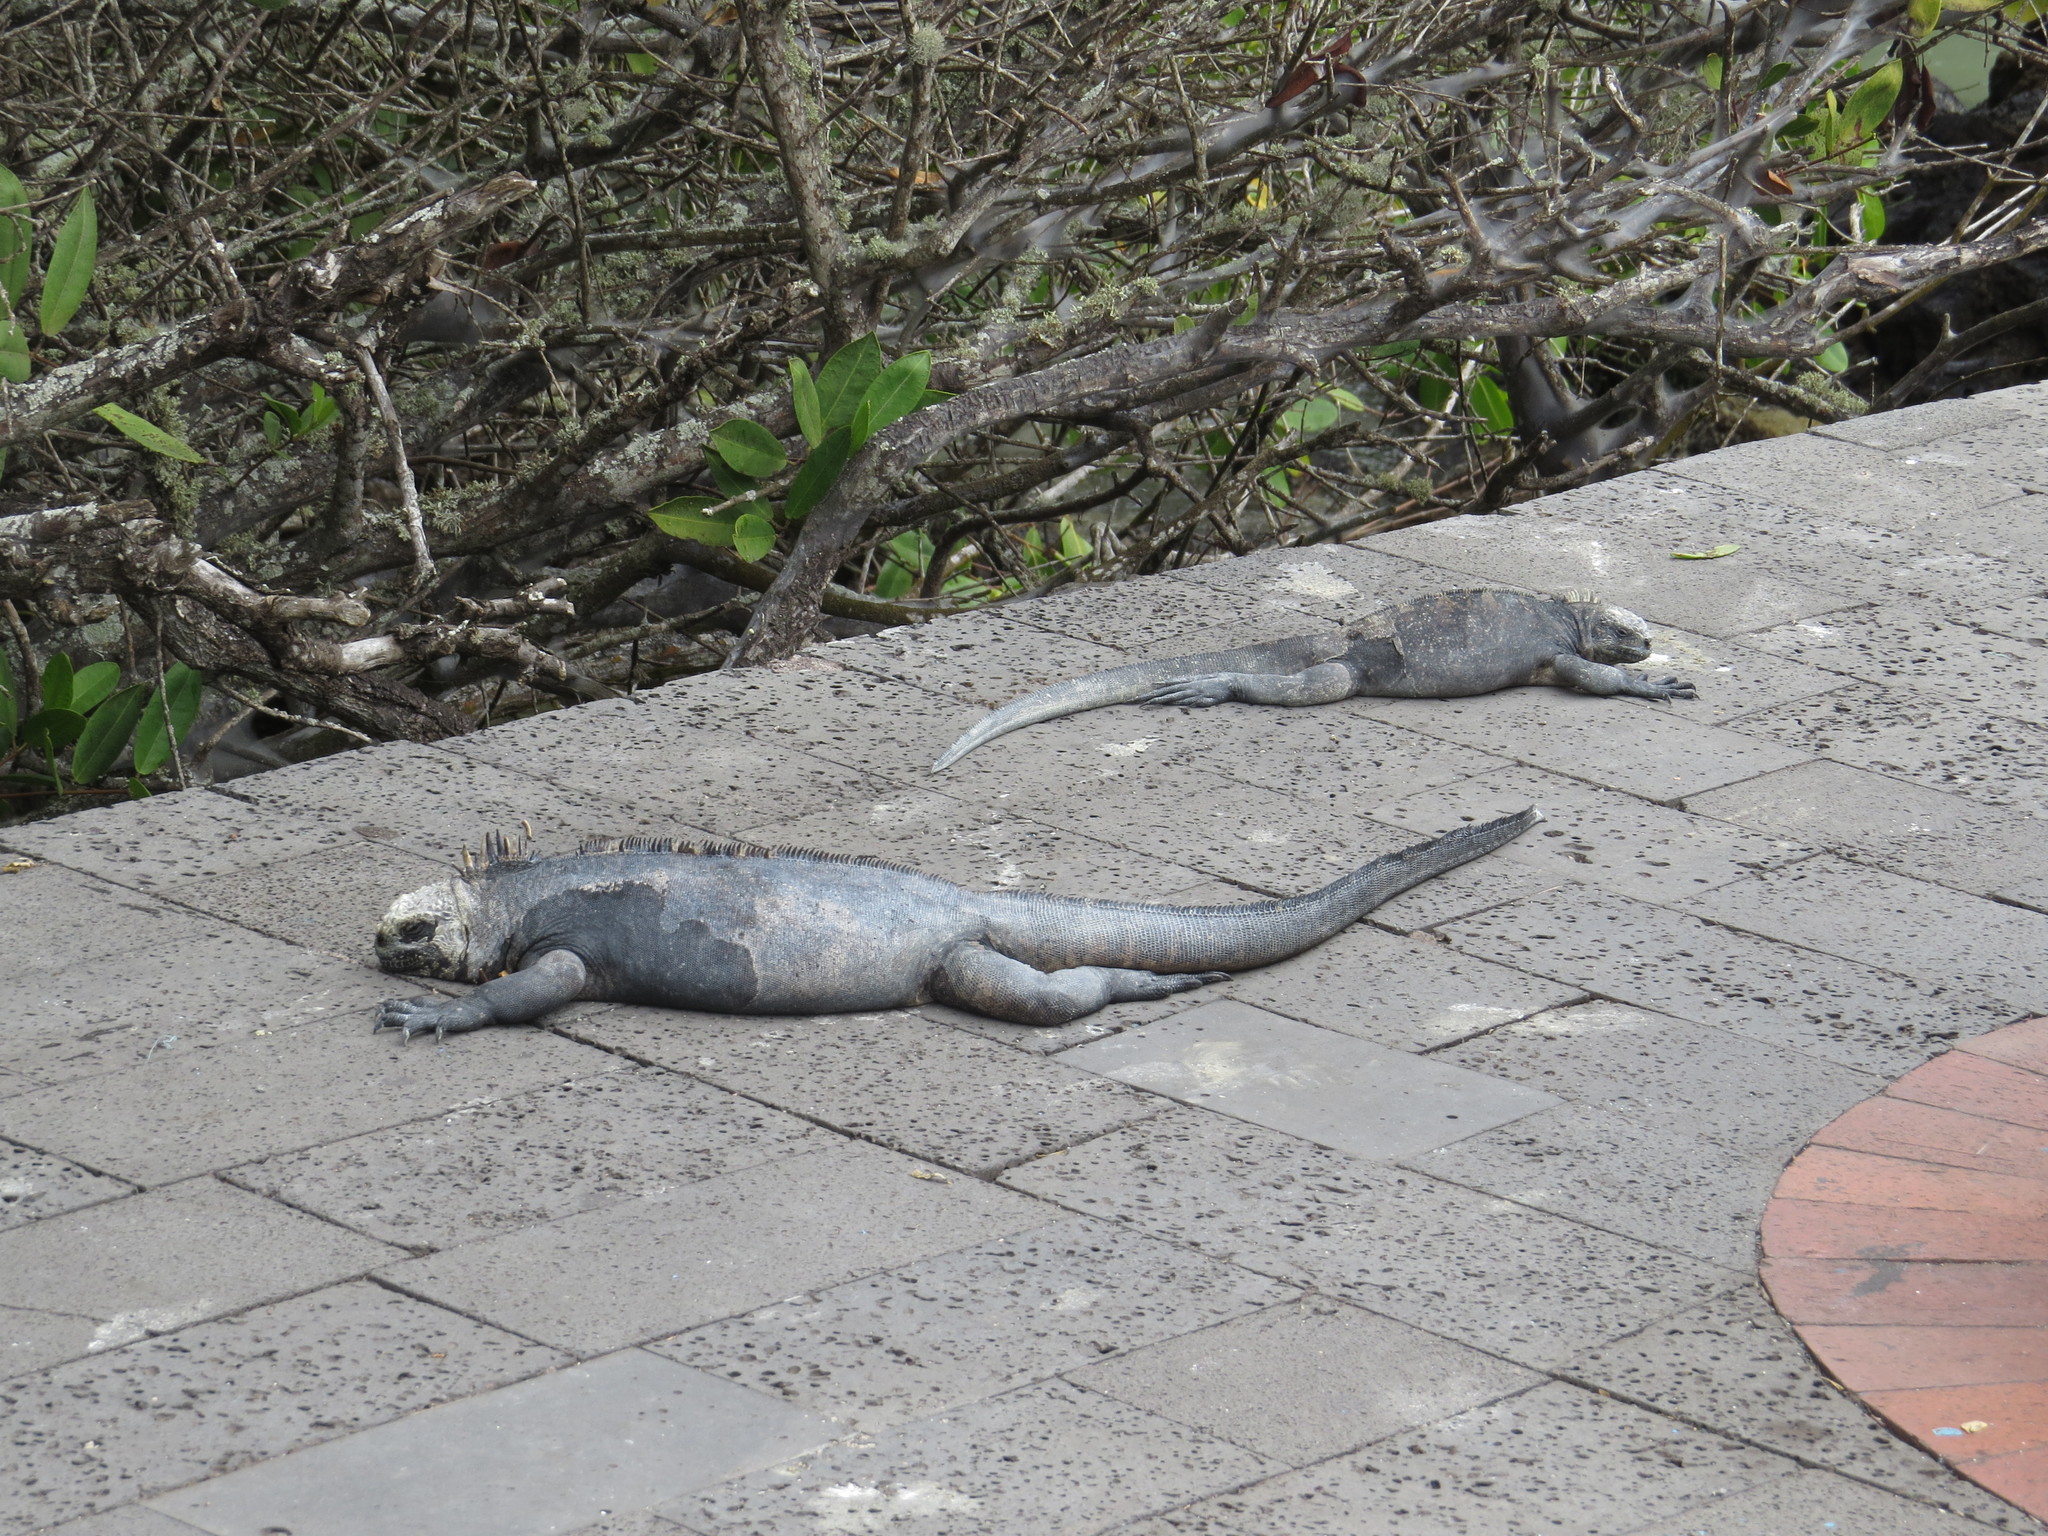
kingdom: Animalia
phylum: Chordata
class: Squamata
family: Iguanidae
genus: Amblyrhynchus
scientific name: Amblyrhynchus cristatus
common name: Marine iguana
